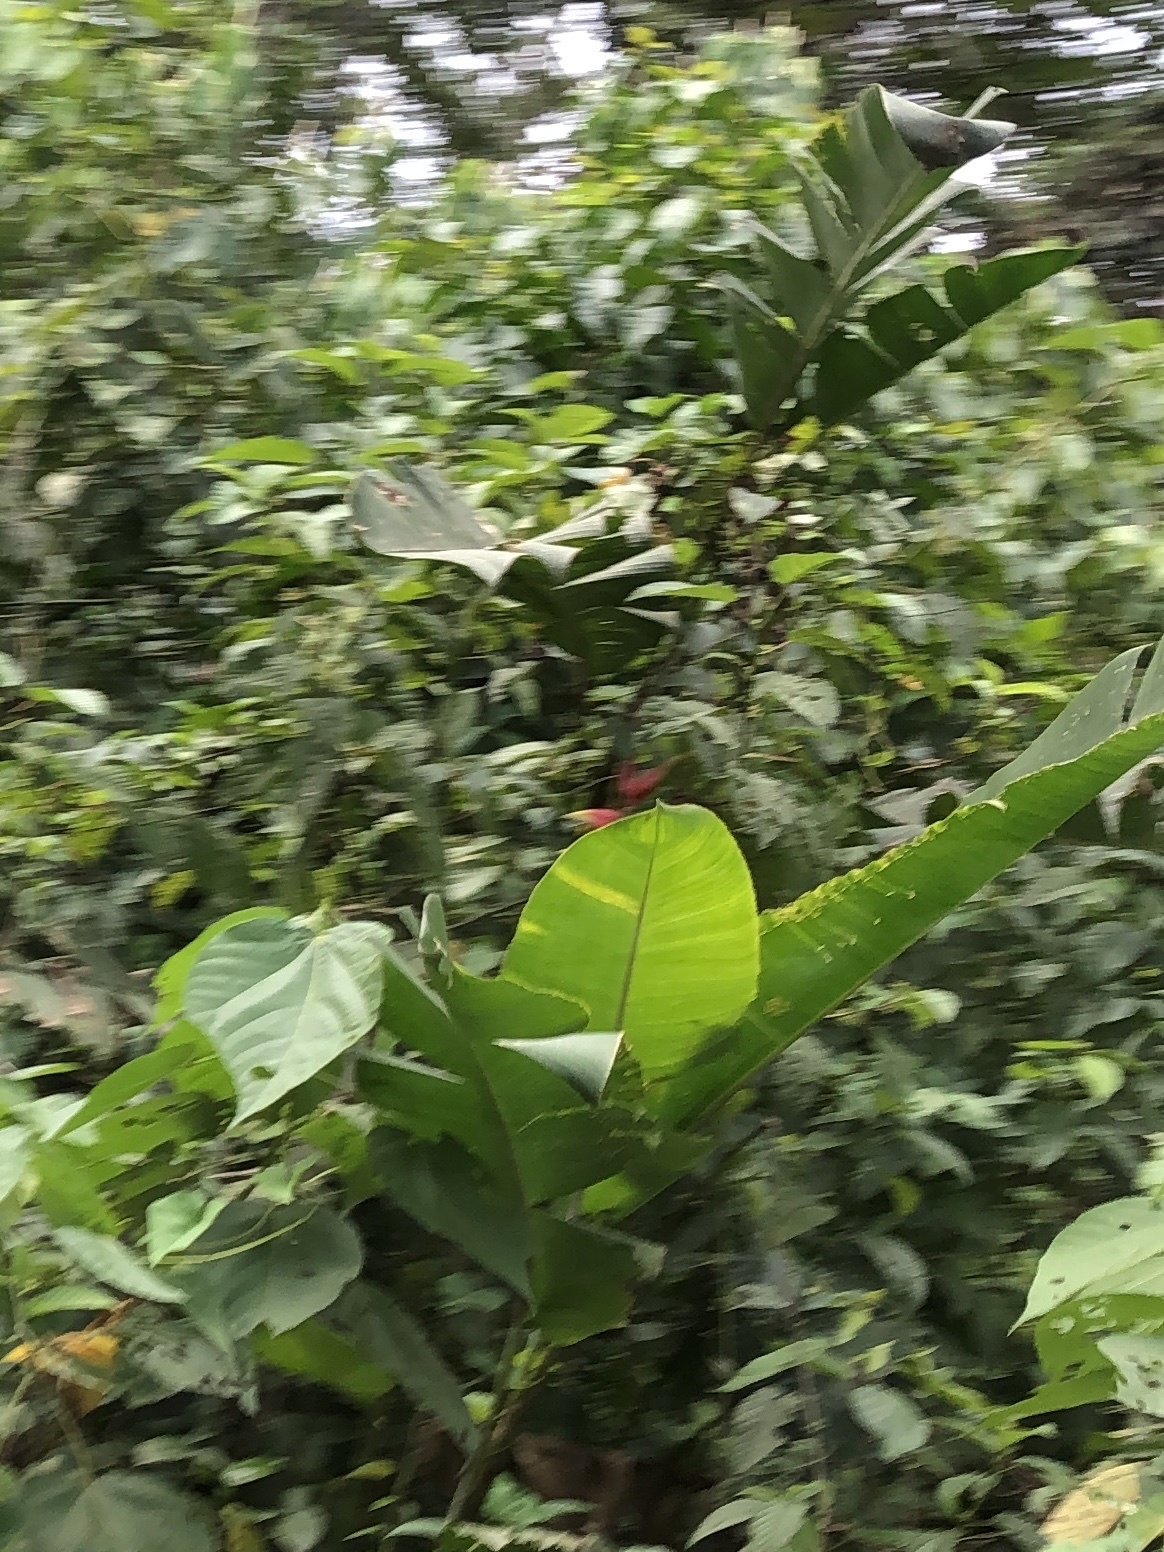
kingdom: Plantae
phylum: Tracheophyta
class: Liliopsida
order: Zingiberales
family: Heliconiaceae
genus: Heliconia
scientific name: Heliconia rostrata
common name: False bird of paradise
